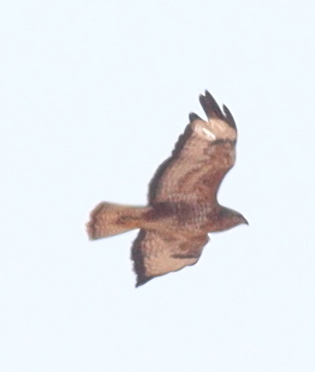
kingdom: Animalia
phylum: Chordata
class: Aves
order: Accipitriformes
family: Accipitridae
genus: Buteo
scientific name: Buteo buteo
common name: Common buzzard
